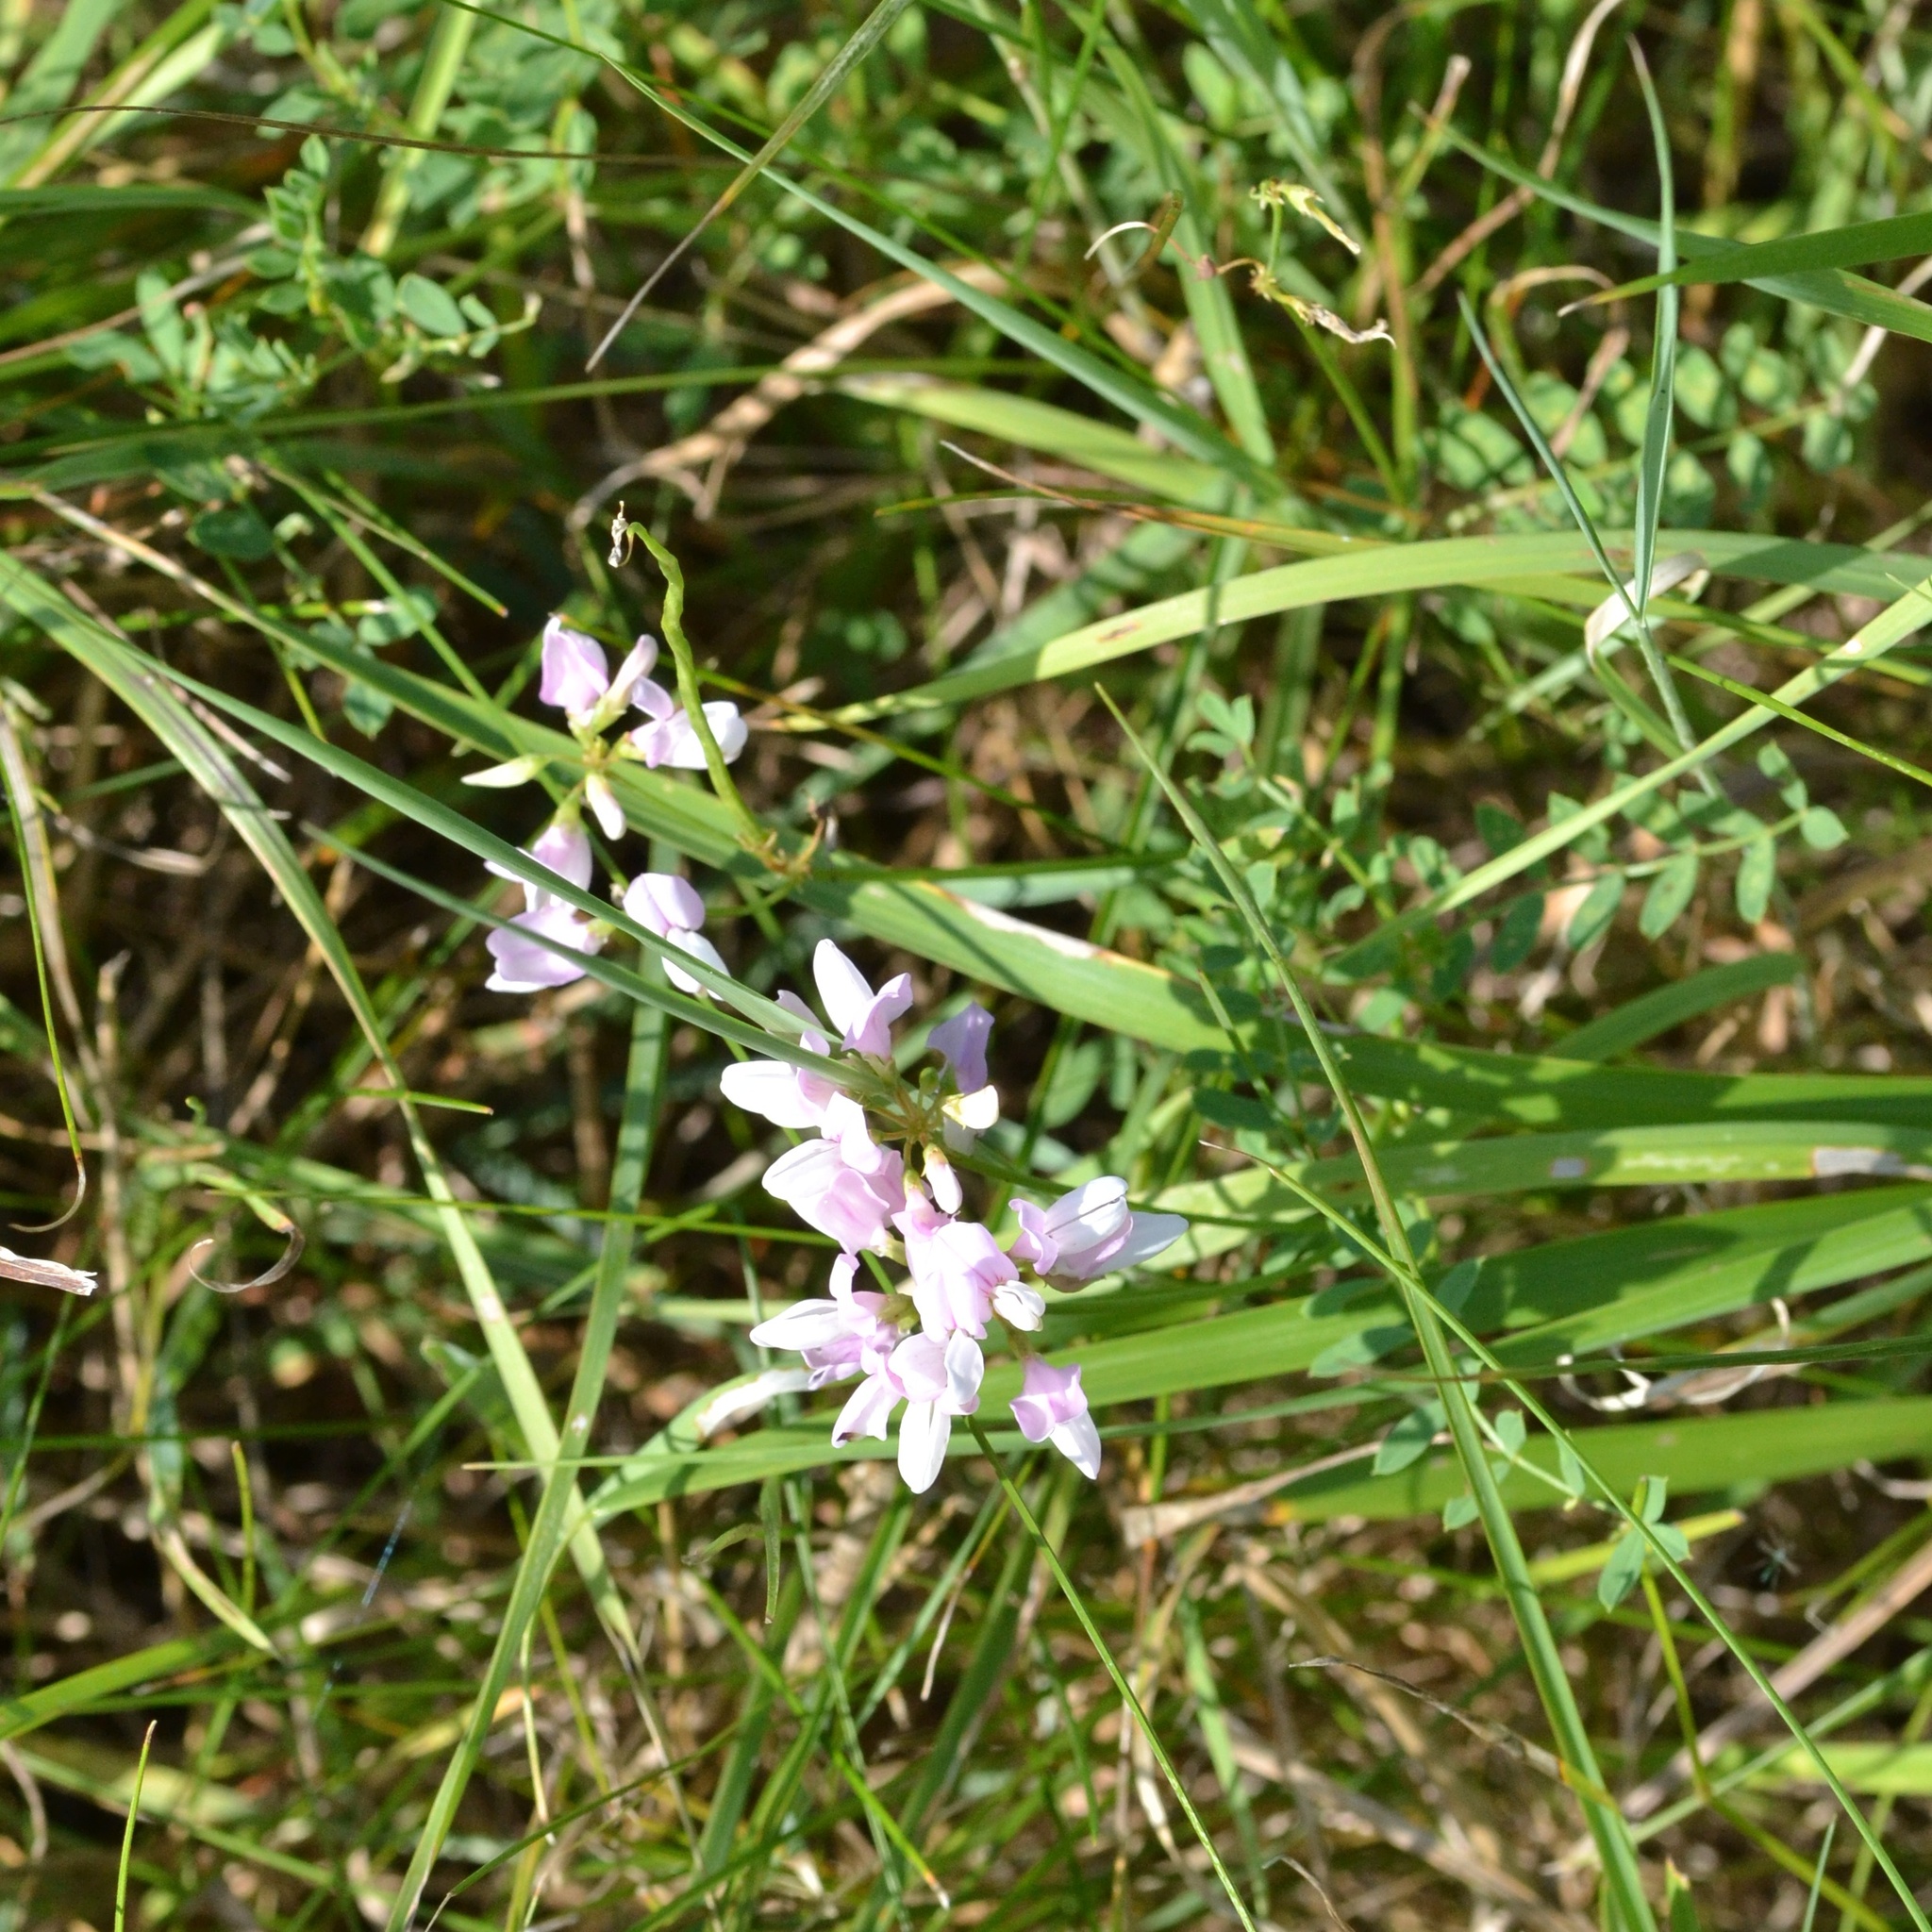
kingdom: Plantae
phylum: Tracheophyta
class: Magnoliopsida
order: Fabales
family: Fabaceae
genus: Coronilla
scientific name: Coronilla varia
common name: Crownvetch
